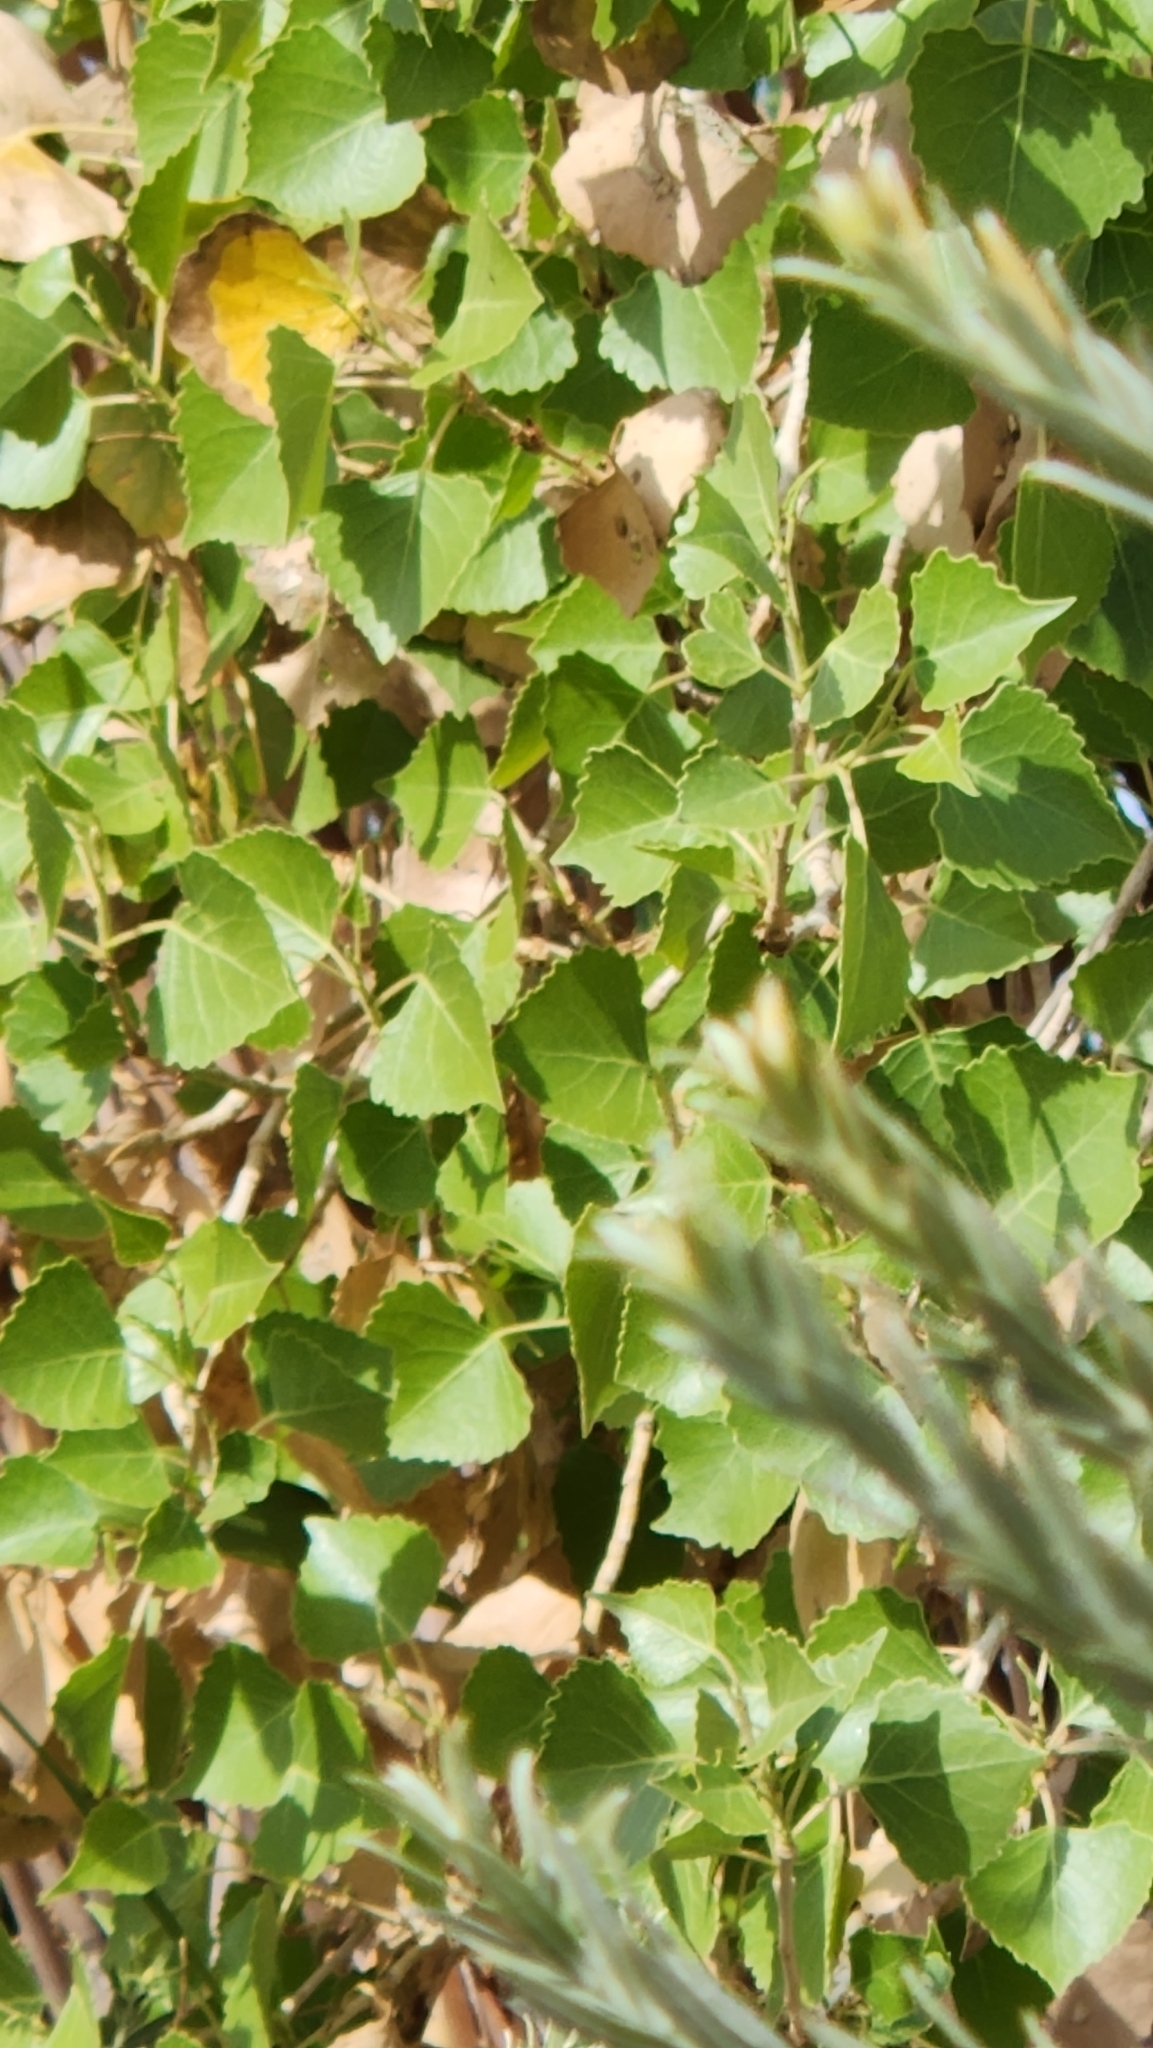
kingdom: Plantae
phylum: Tracheophyta
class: Magnoliopsida
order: Malpighiales
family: Salicaceae
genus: Populus
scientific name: Populus fremontii
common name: Fremont's cottonwood
